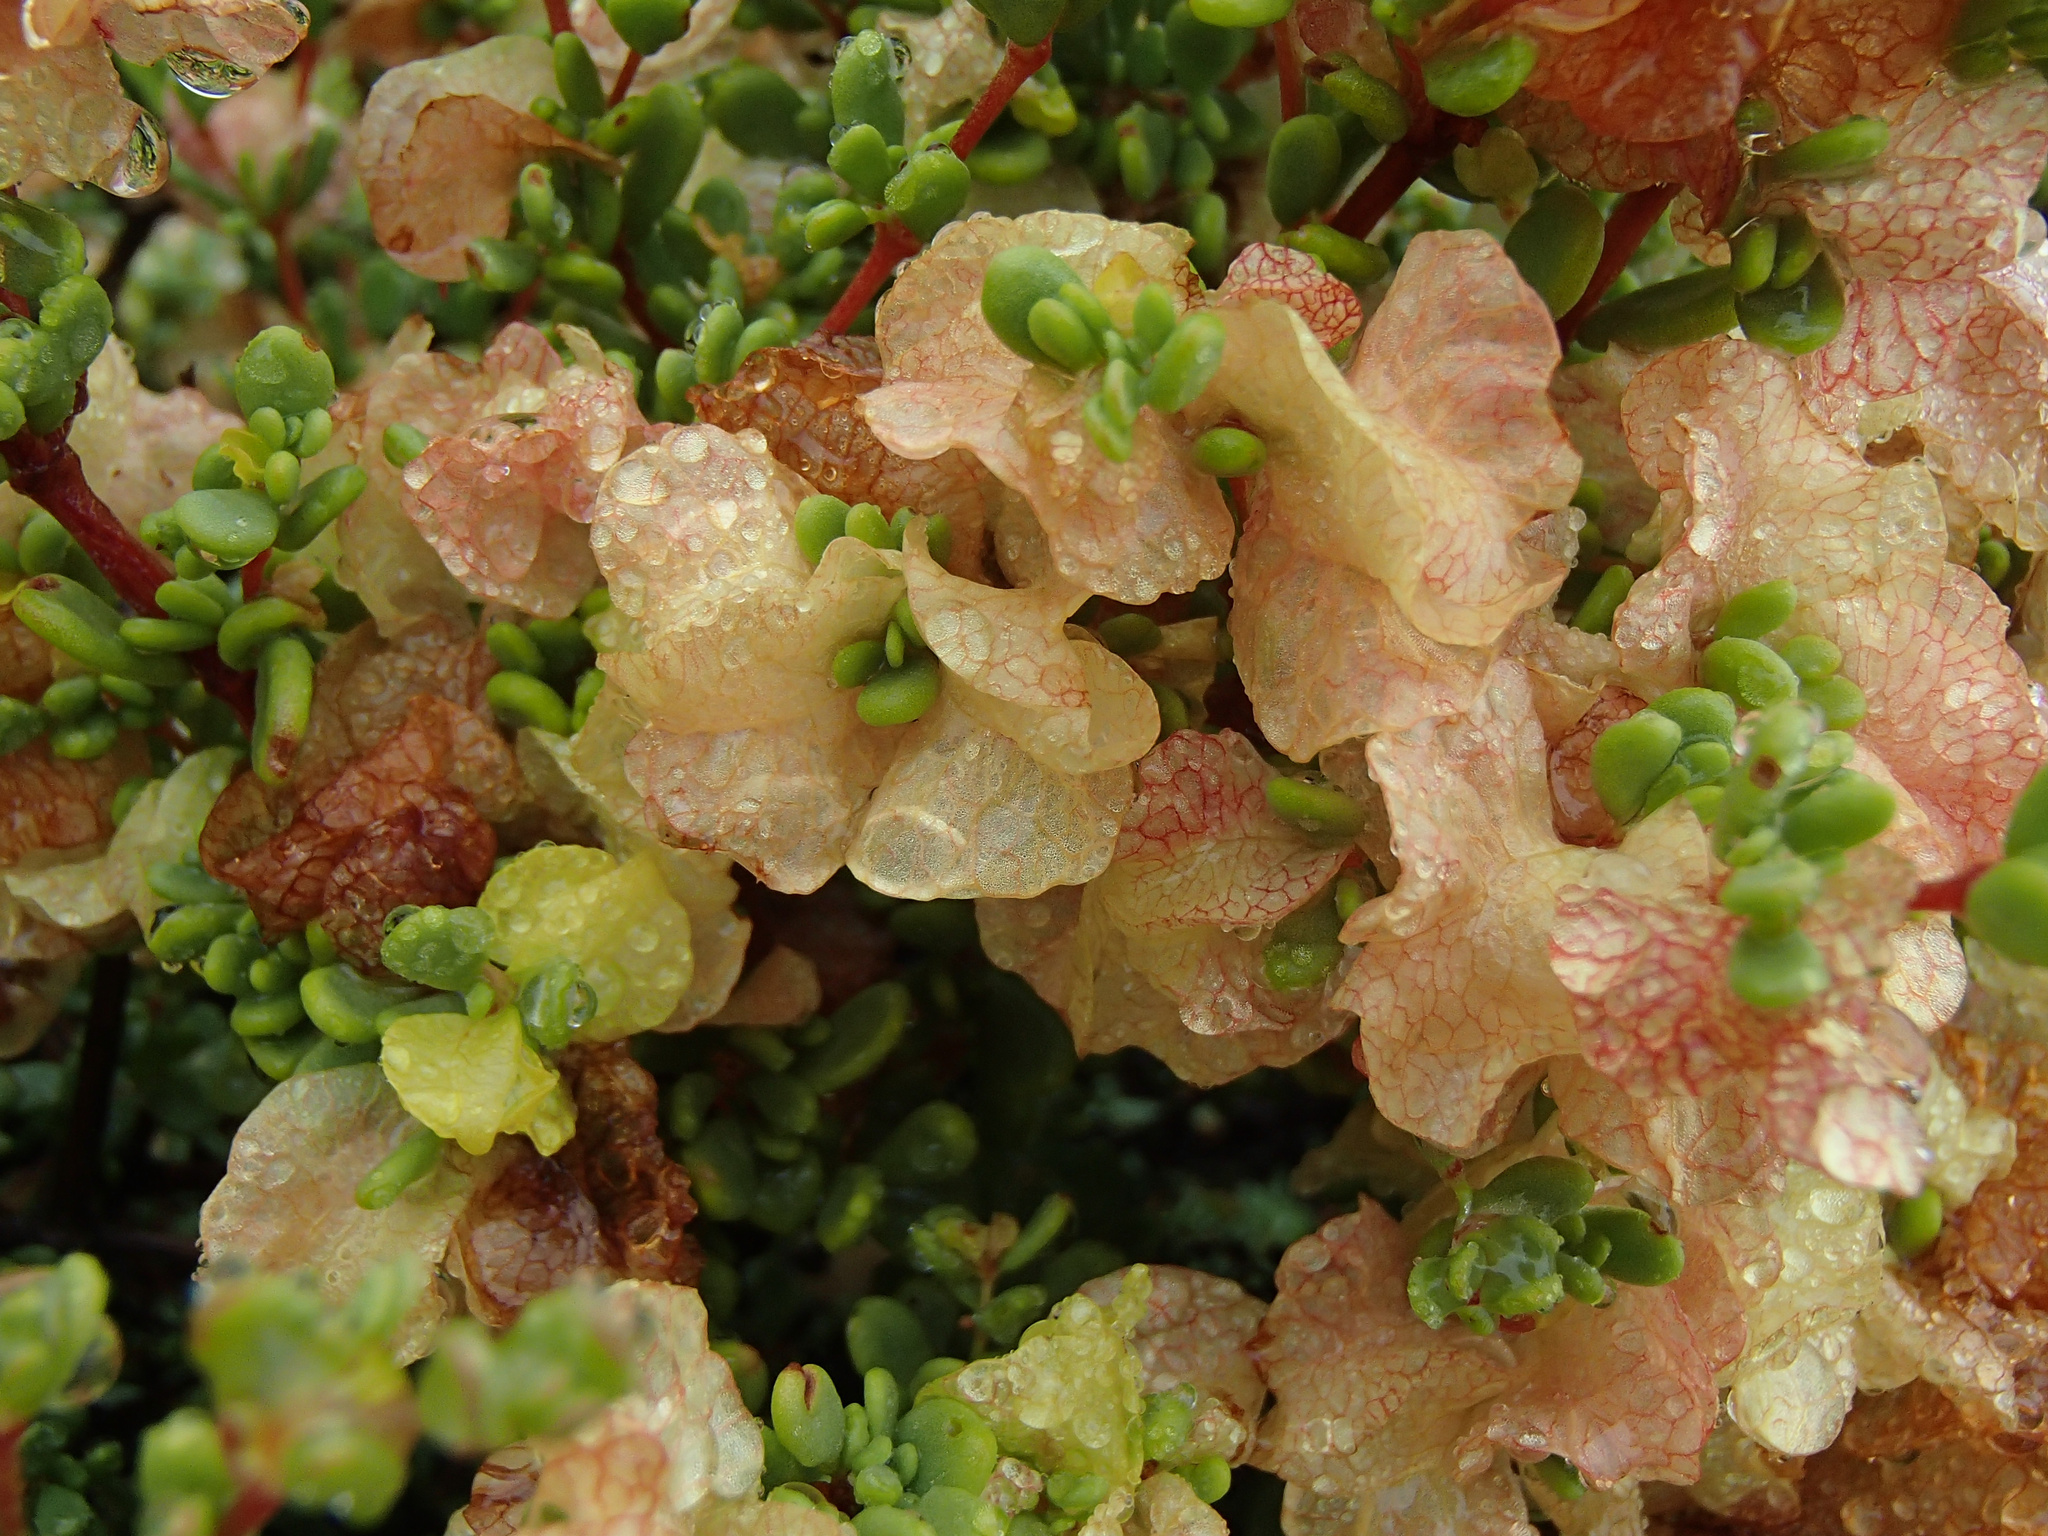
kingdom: Plantae
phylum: Tracheophyta
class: Magnoliopsida
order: Caryophyllales
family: Polygonaceae
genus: Harfordia
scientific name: Harfordia macroptera
